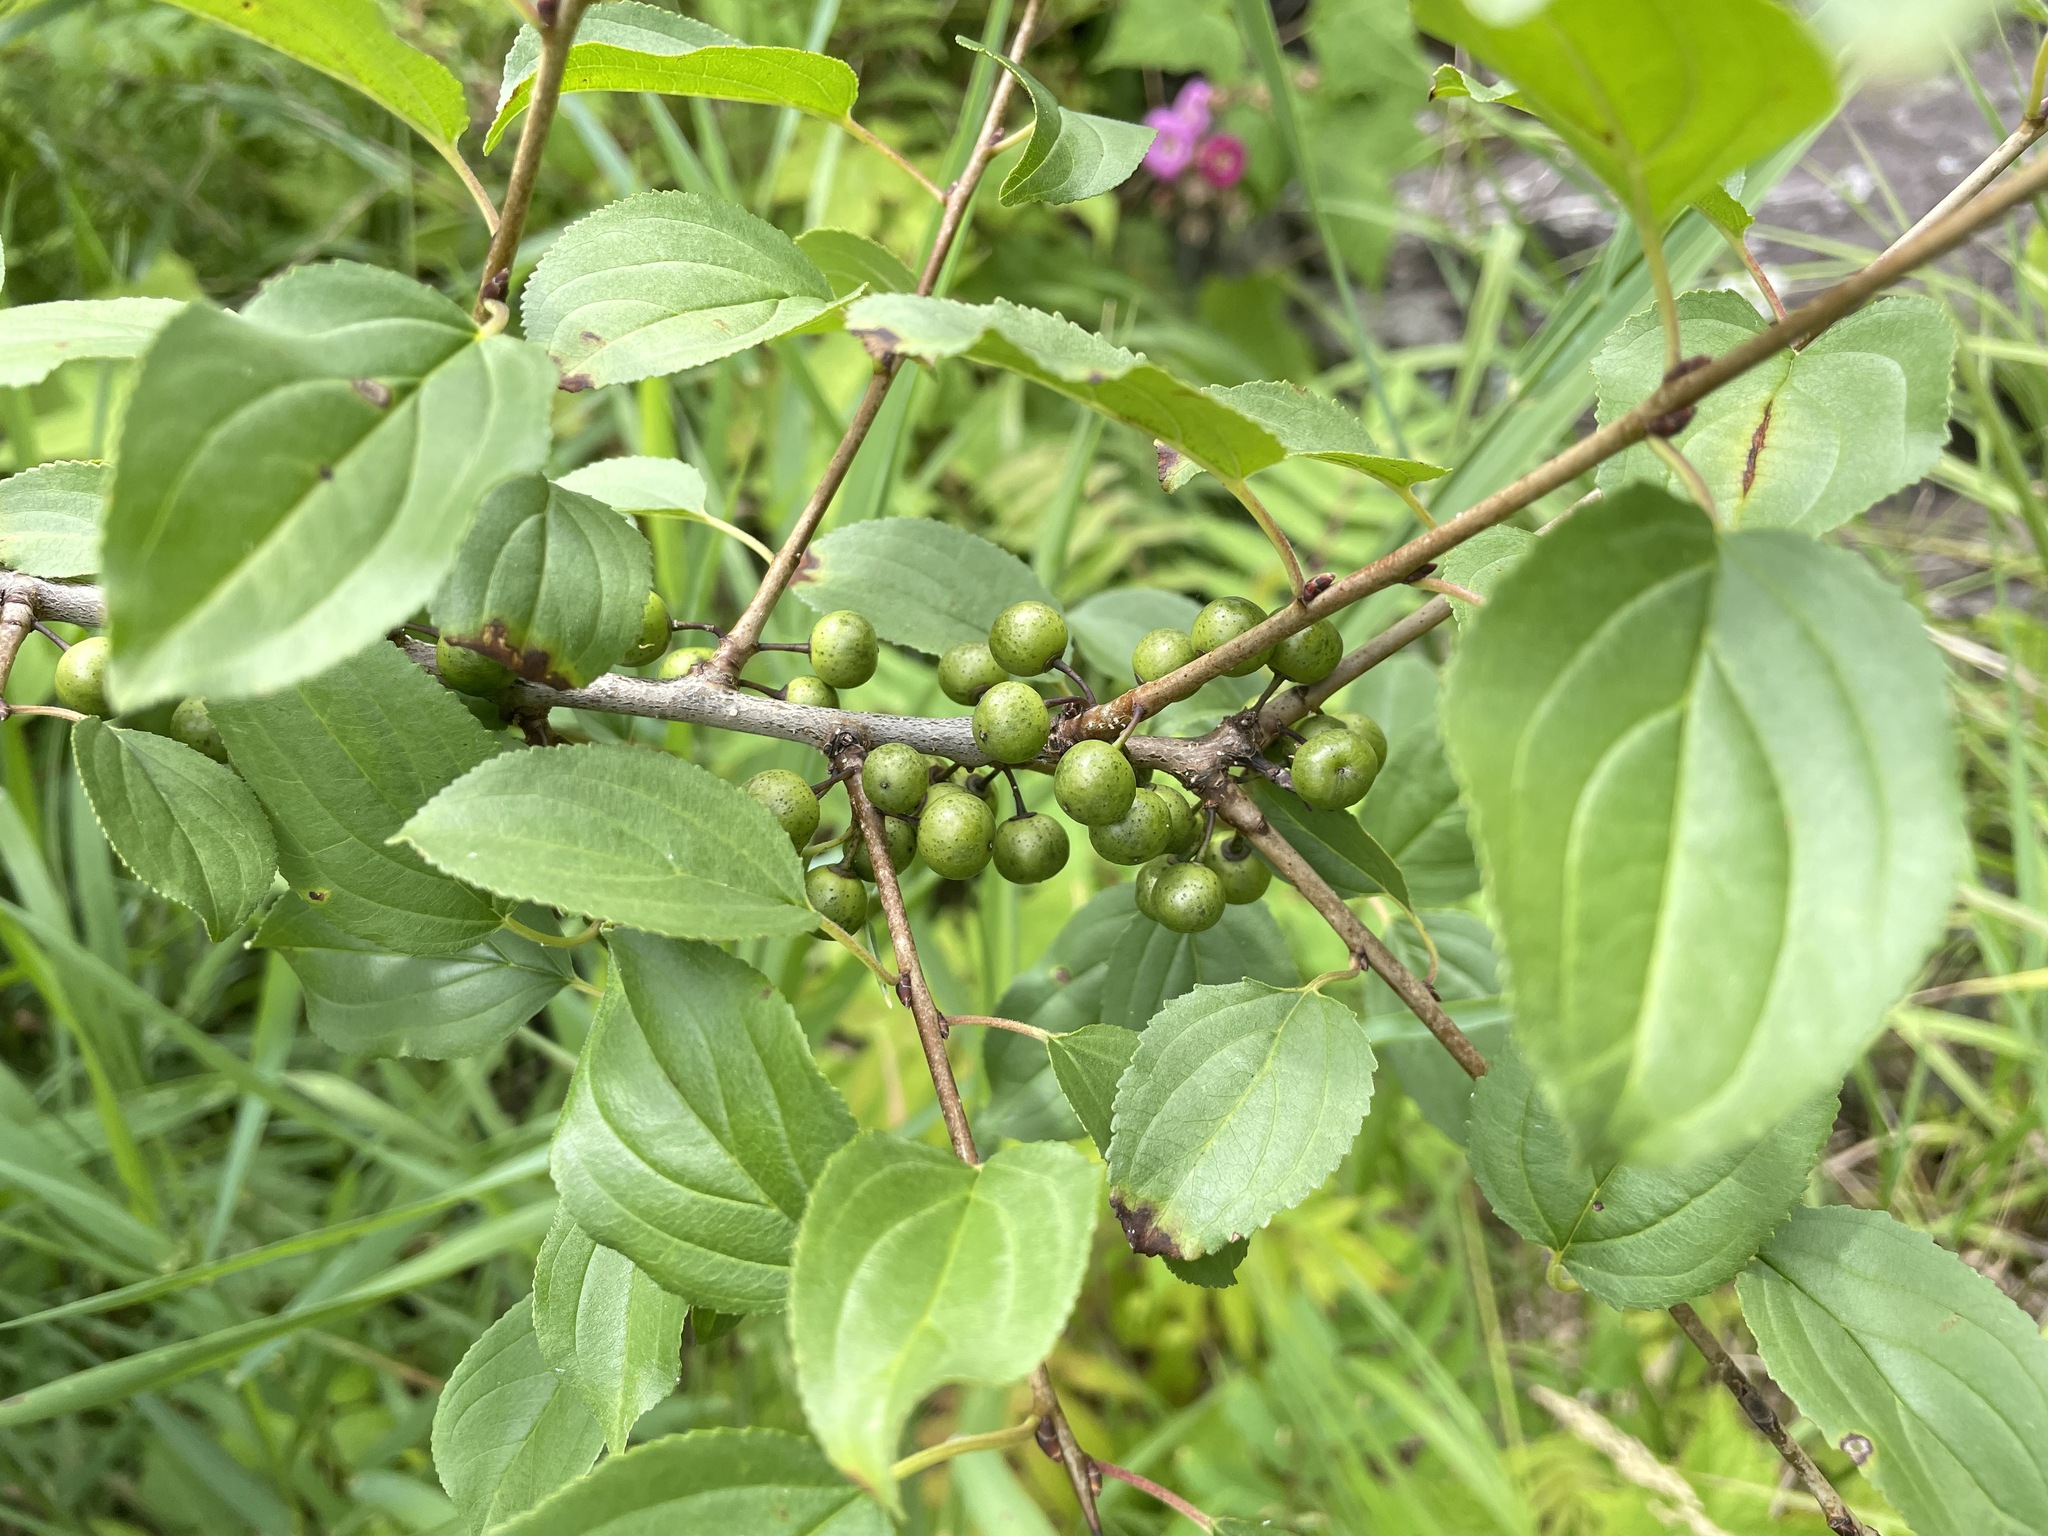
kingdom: Plantae
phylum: Tracheophyta
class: Magnoliopsida
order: Rosales
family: Rhamnaceae
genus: Rhamnus
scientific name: Rhamnus cathartica
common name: Common buckthorn
